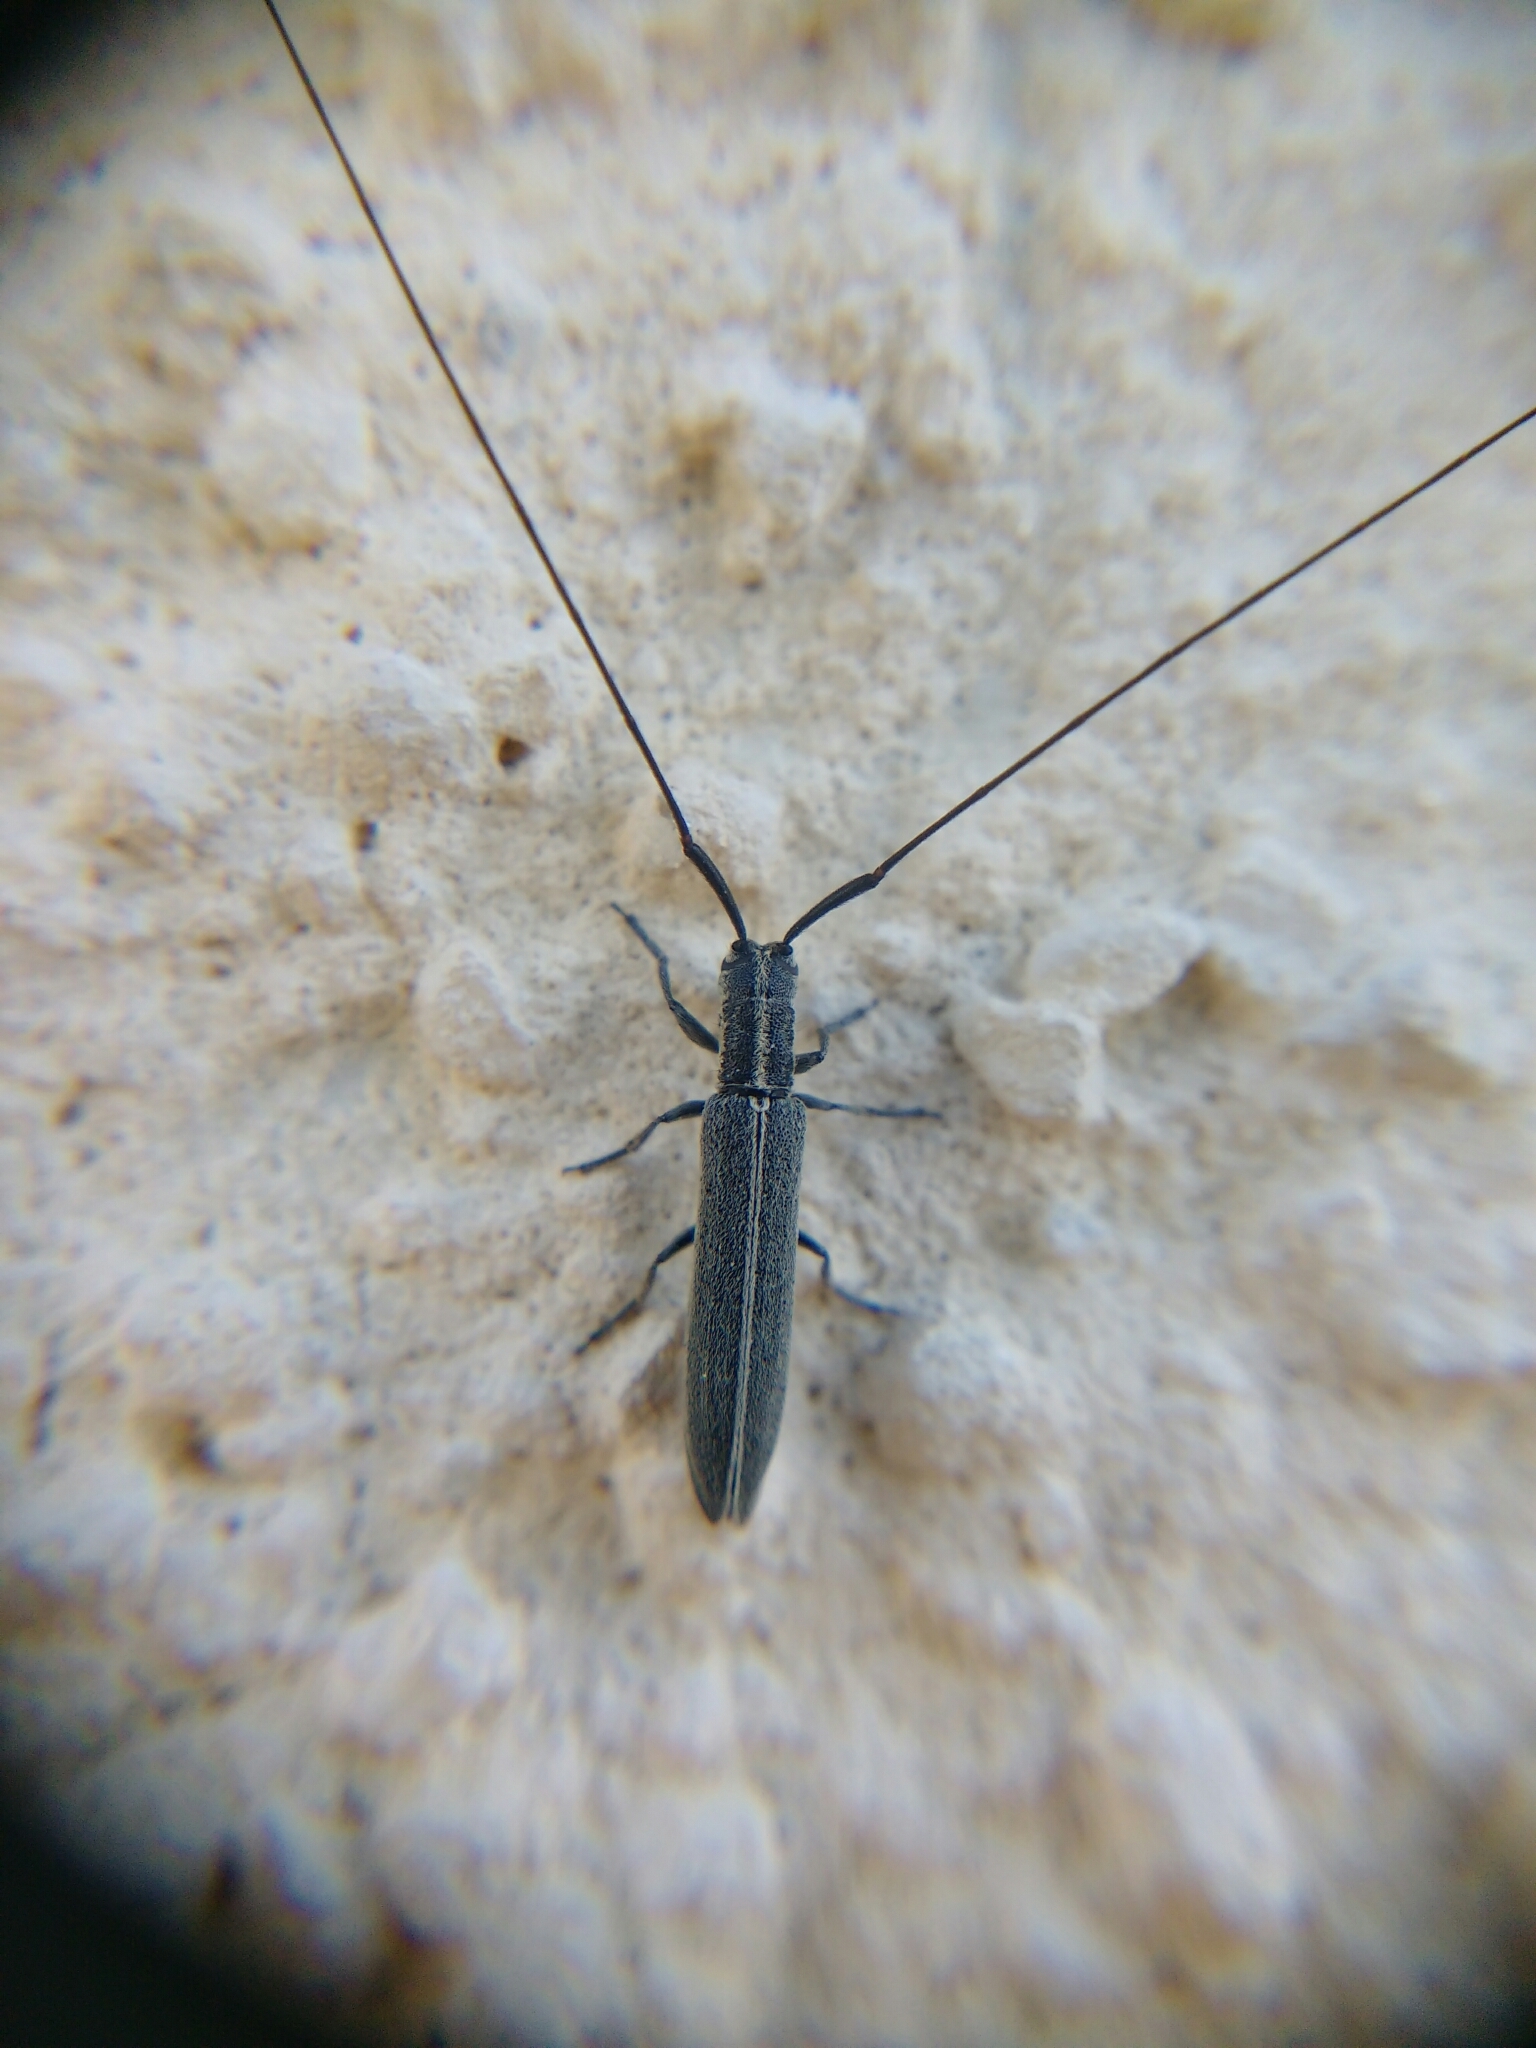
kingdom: Animalia
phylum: Arthropoda
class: Insecta
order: Coleoptera
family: Cerambycidae
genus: Calamobius
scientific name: Calamobius filum
